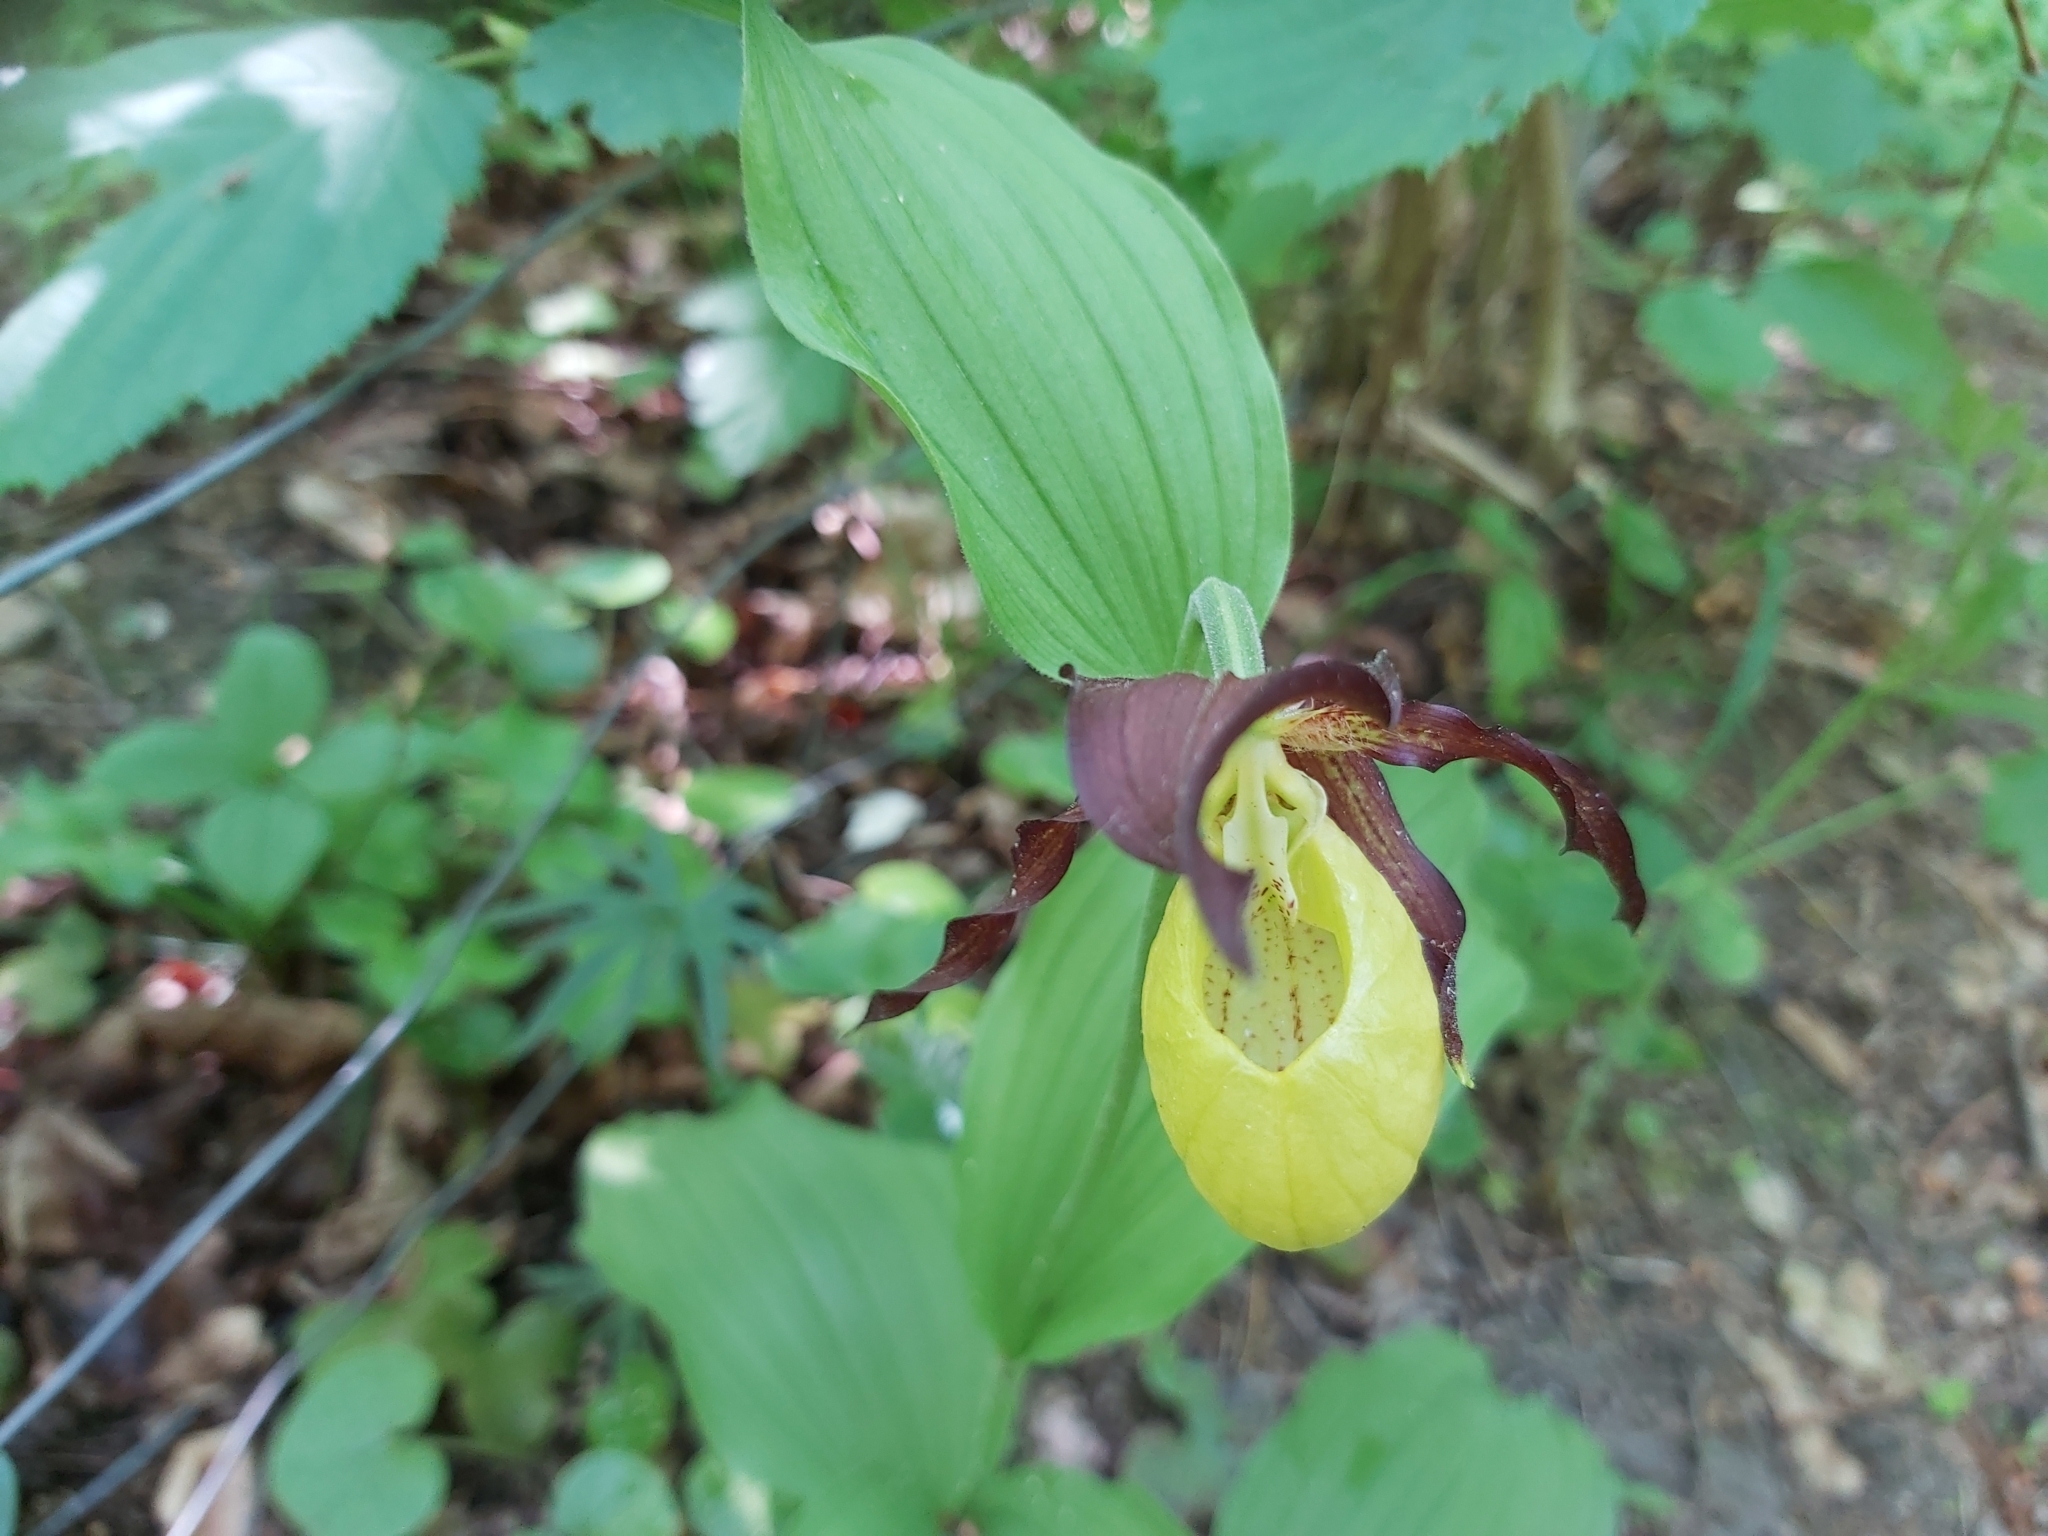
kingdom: Plantae
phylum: Tracheophyta
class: Liliopsida
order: Asparagales
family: Orchidaceae
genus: Cypripedium
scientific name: Cypripedium calceolus
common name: Lady's-slipper
